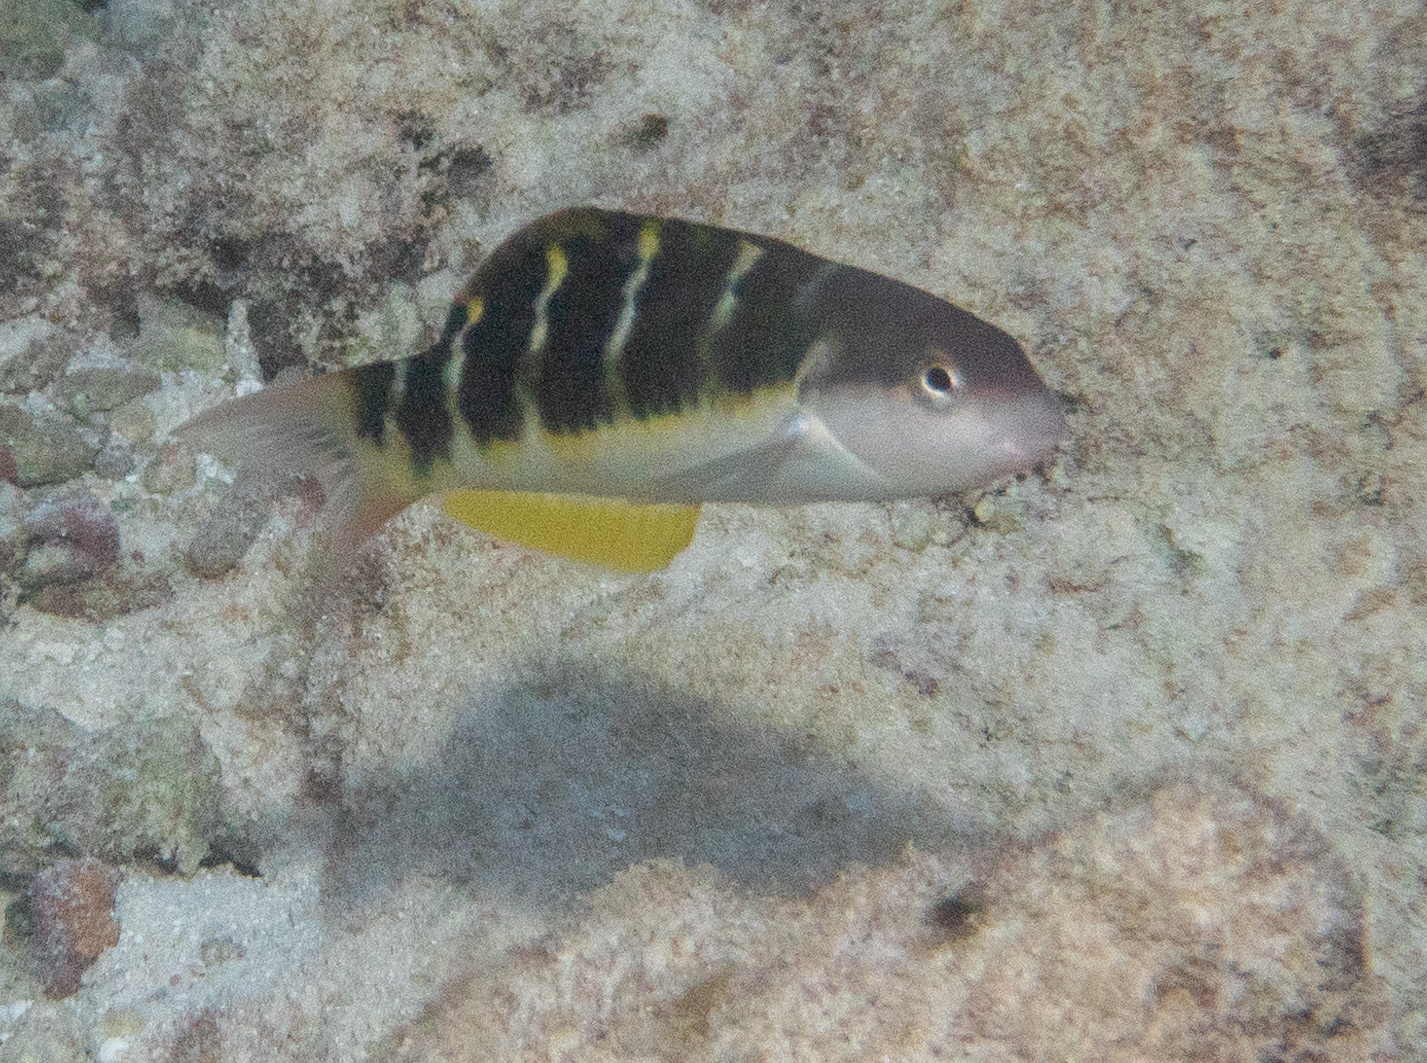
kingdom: Animalia
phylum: Chordata
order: Perciformes
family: Labridae
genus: Thalassoma
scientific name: Thalassoma jansenii
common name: Jansen's wrasse
